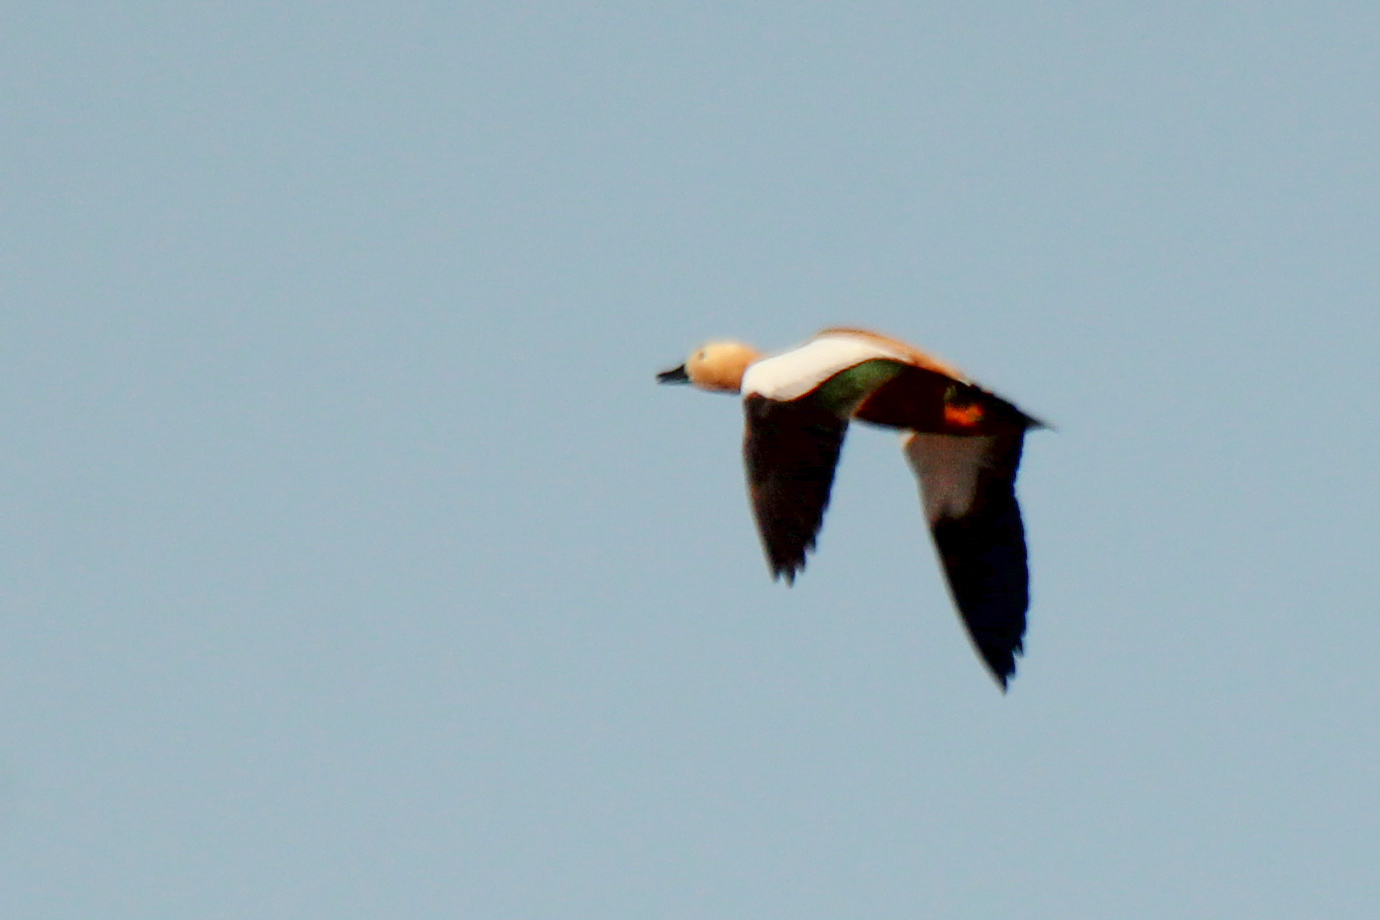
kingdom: Animalia
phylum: Chordata
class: Aves
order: Anseriformes
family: Anatidae
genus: Tadorna
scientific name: Tadorna ferruginea
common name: Ruddy shelduck
